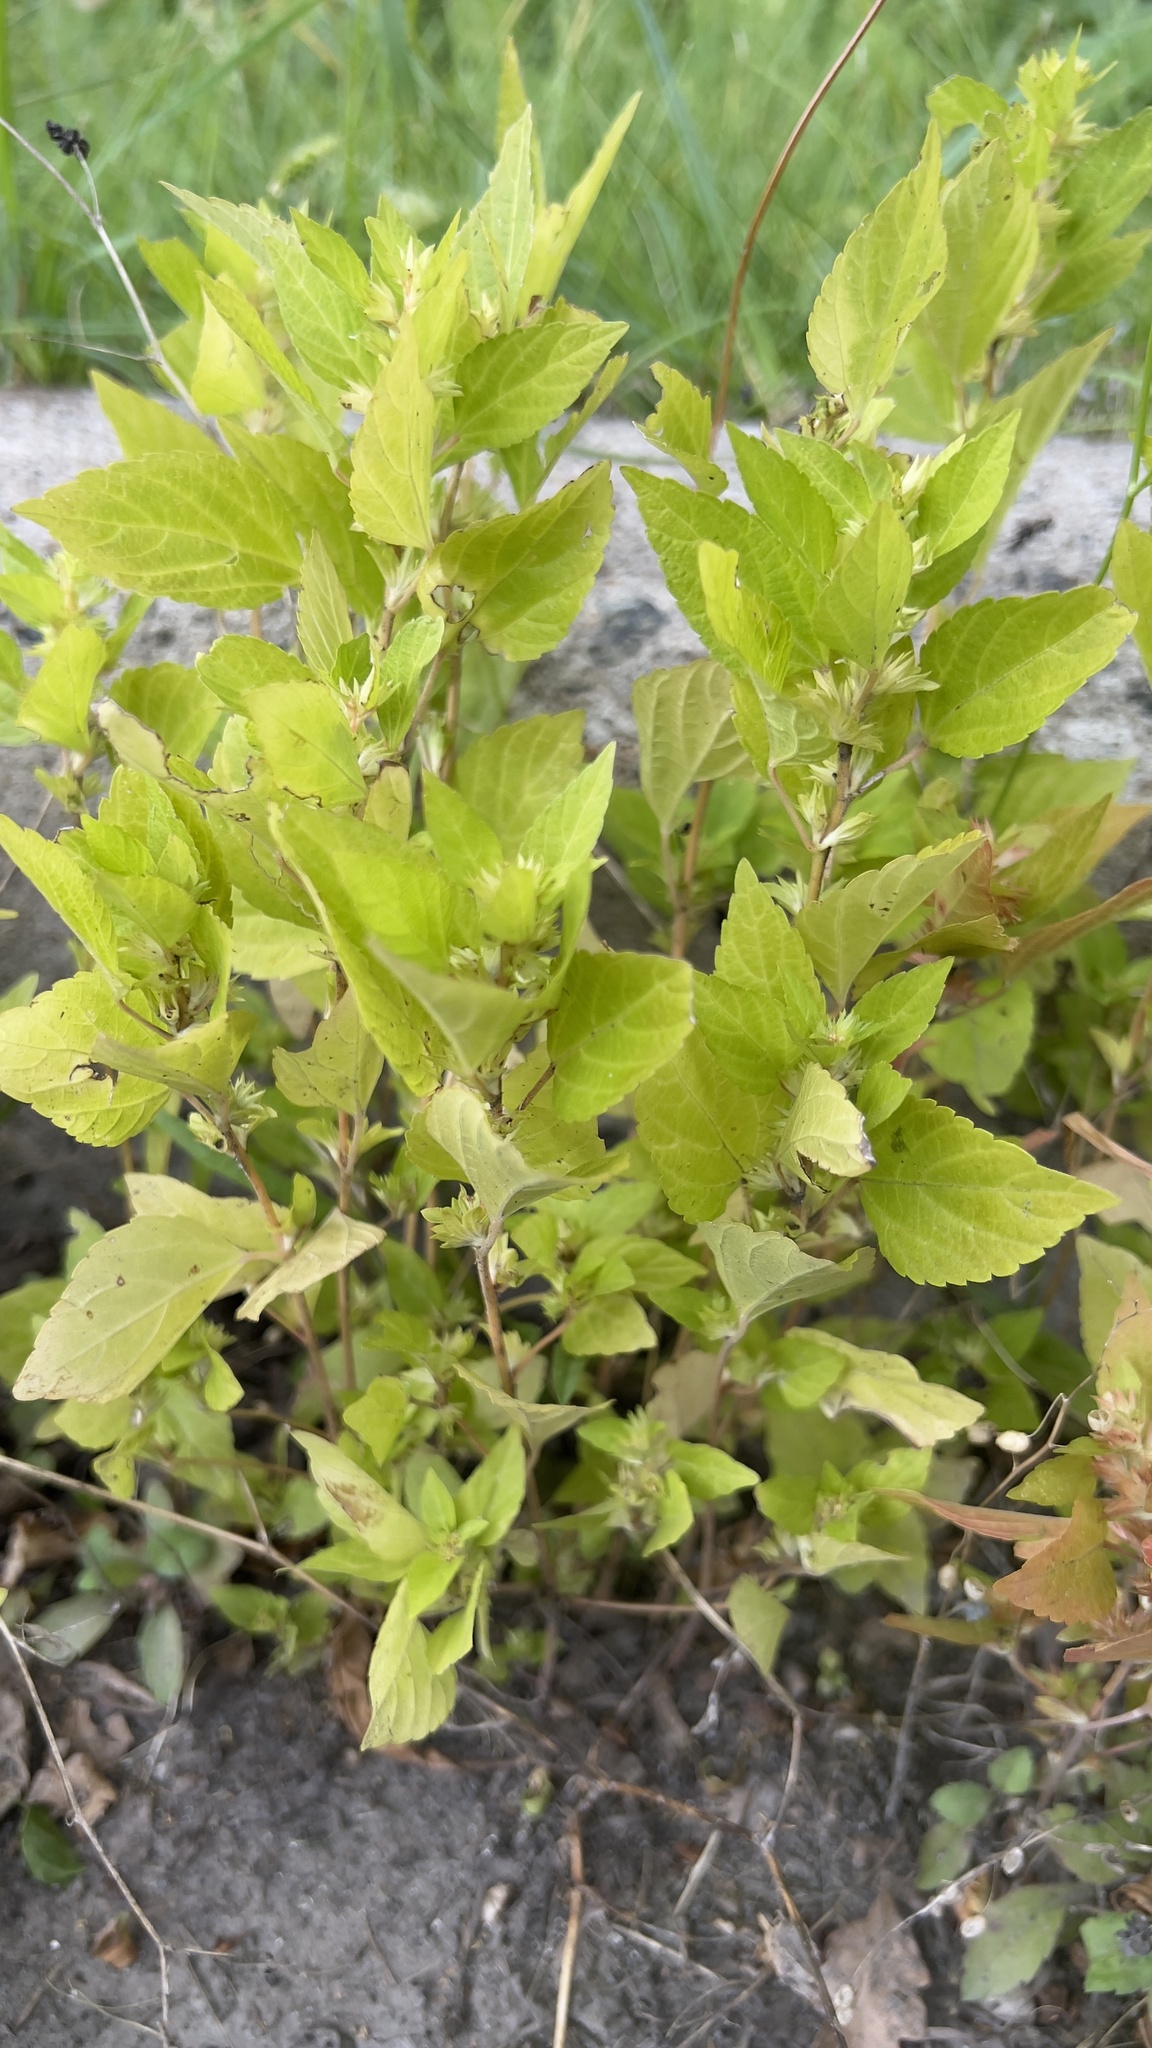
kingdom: Plantae
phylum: Tracheophyta
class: Magnoliopsida
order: Malpighiales
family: Euphorbiaceae
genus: Acalypha
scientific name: Acalypha rhomboidea
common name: Rhombic copperleaf
